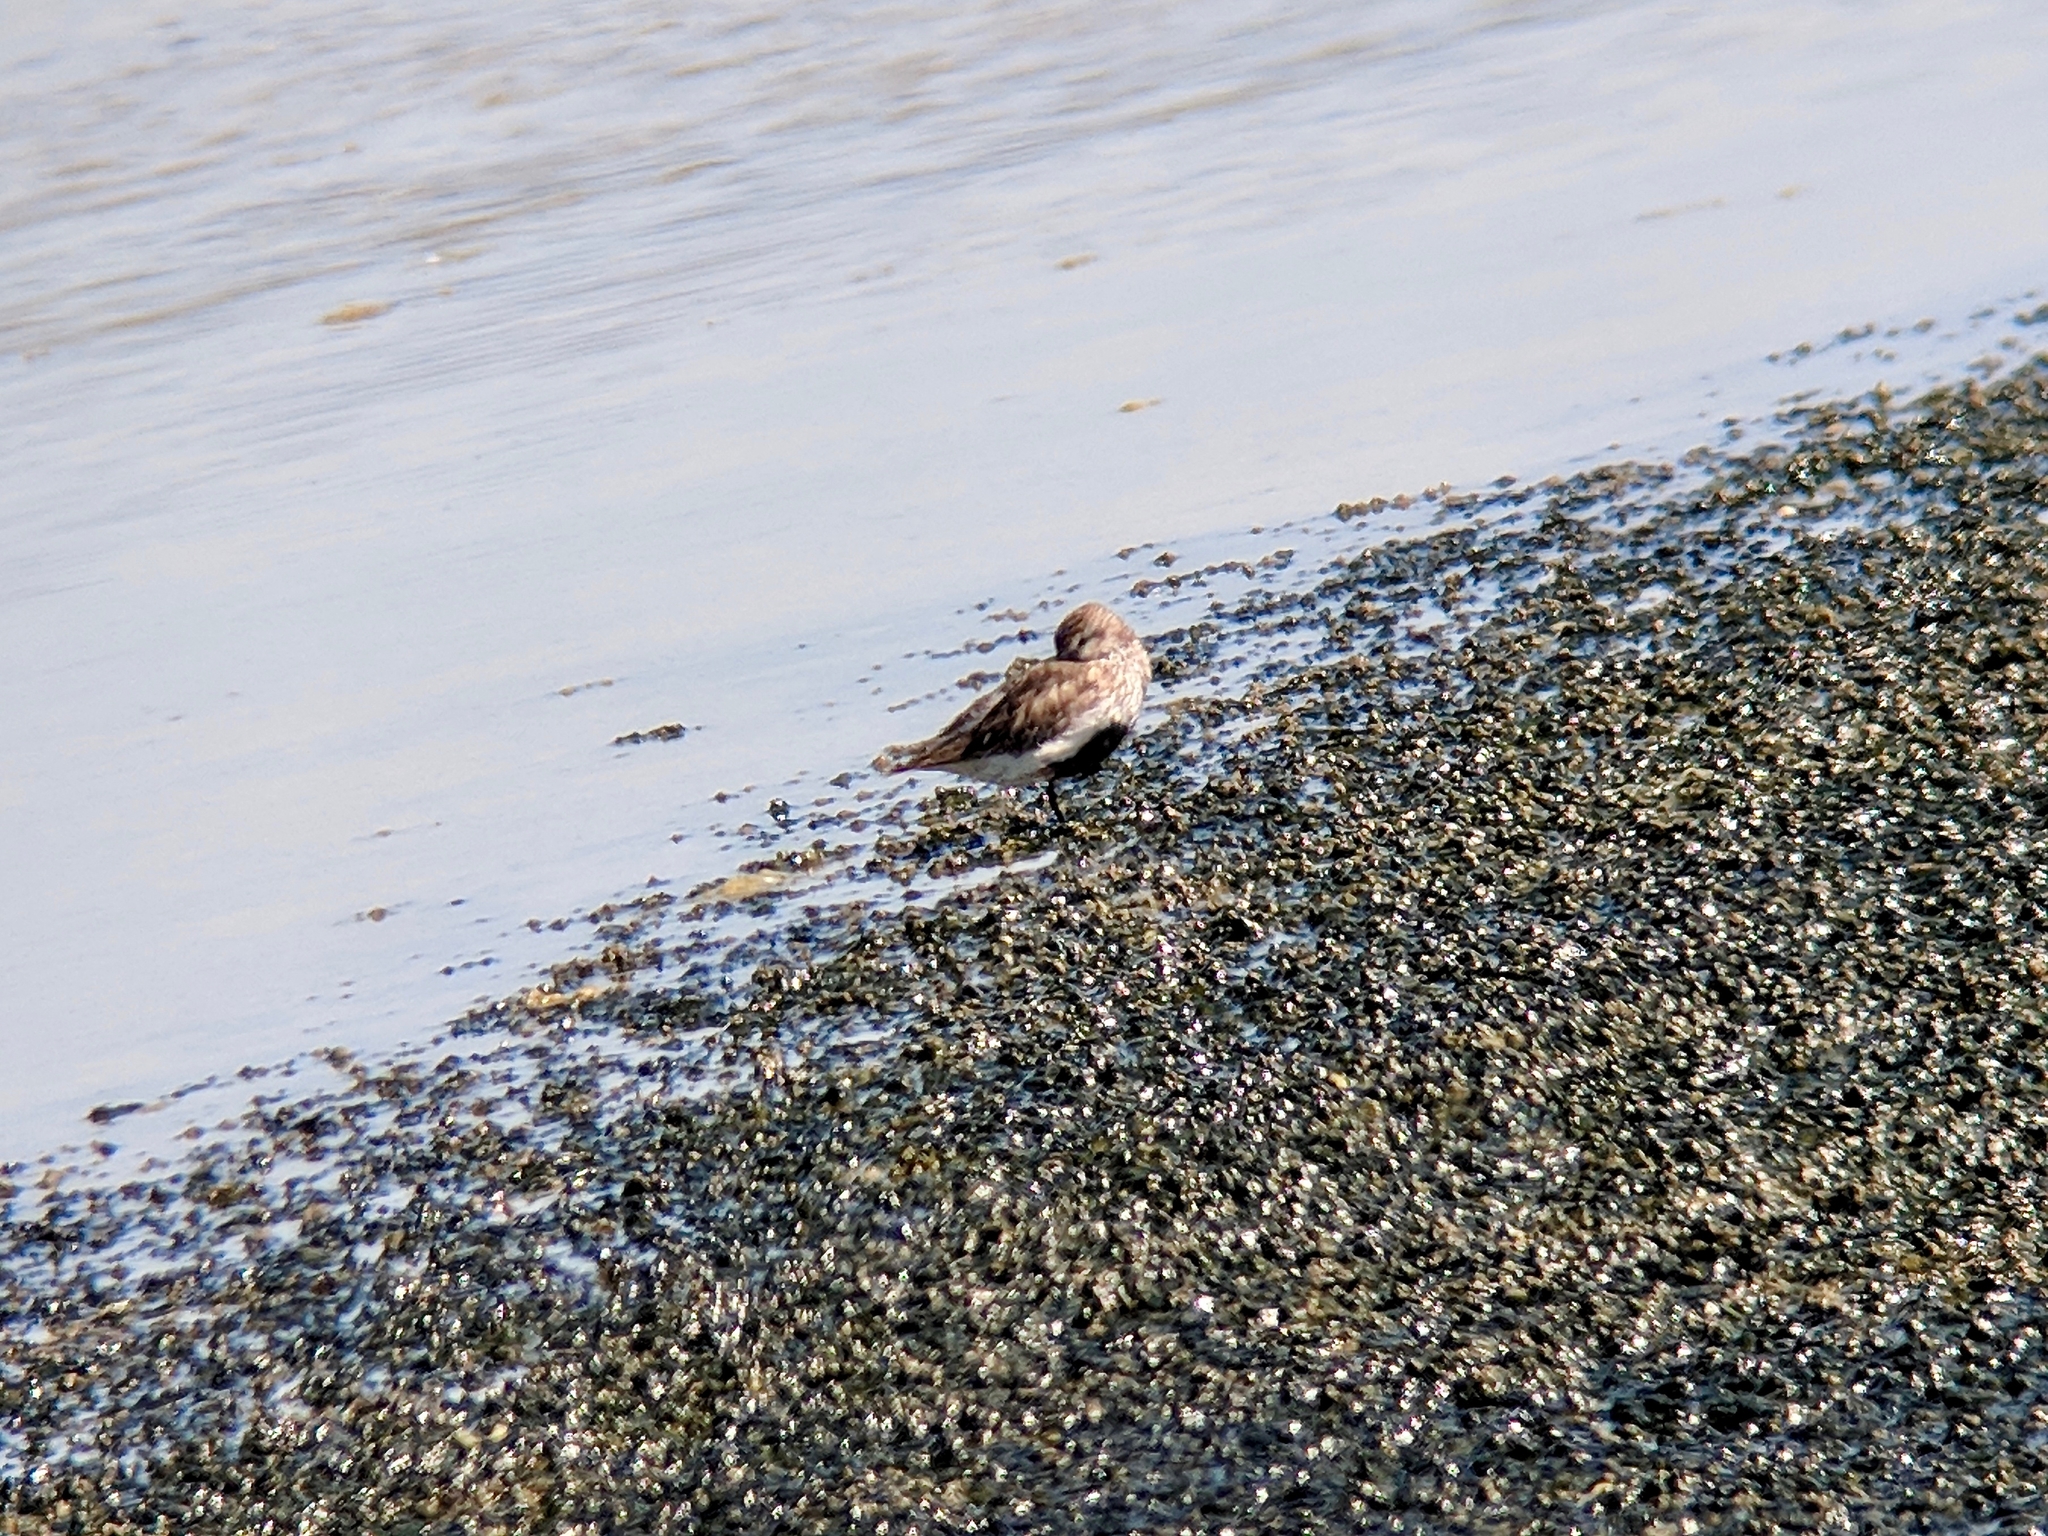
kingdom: Animalia
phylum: Chordata
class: Aves
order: Charadriiformes
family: Scolopacidae
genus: Calidris
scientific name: Calidris alpina
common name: Dunlin
